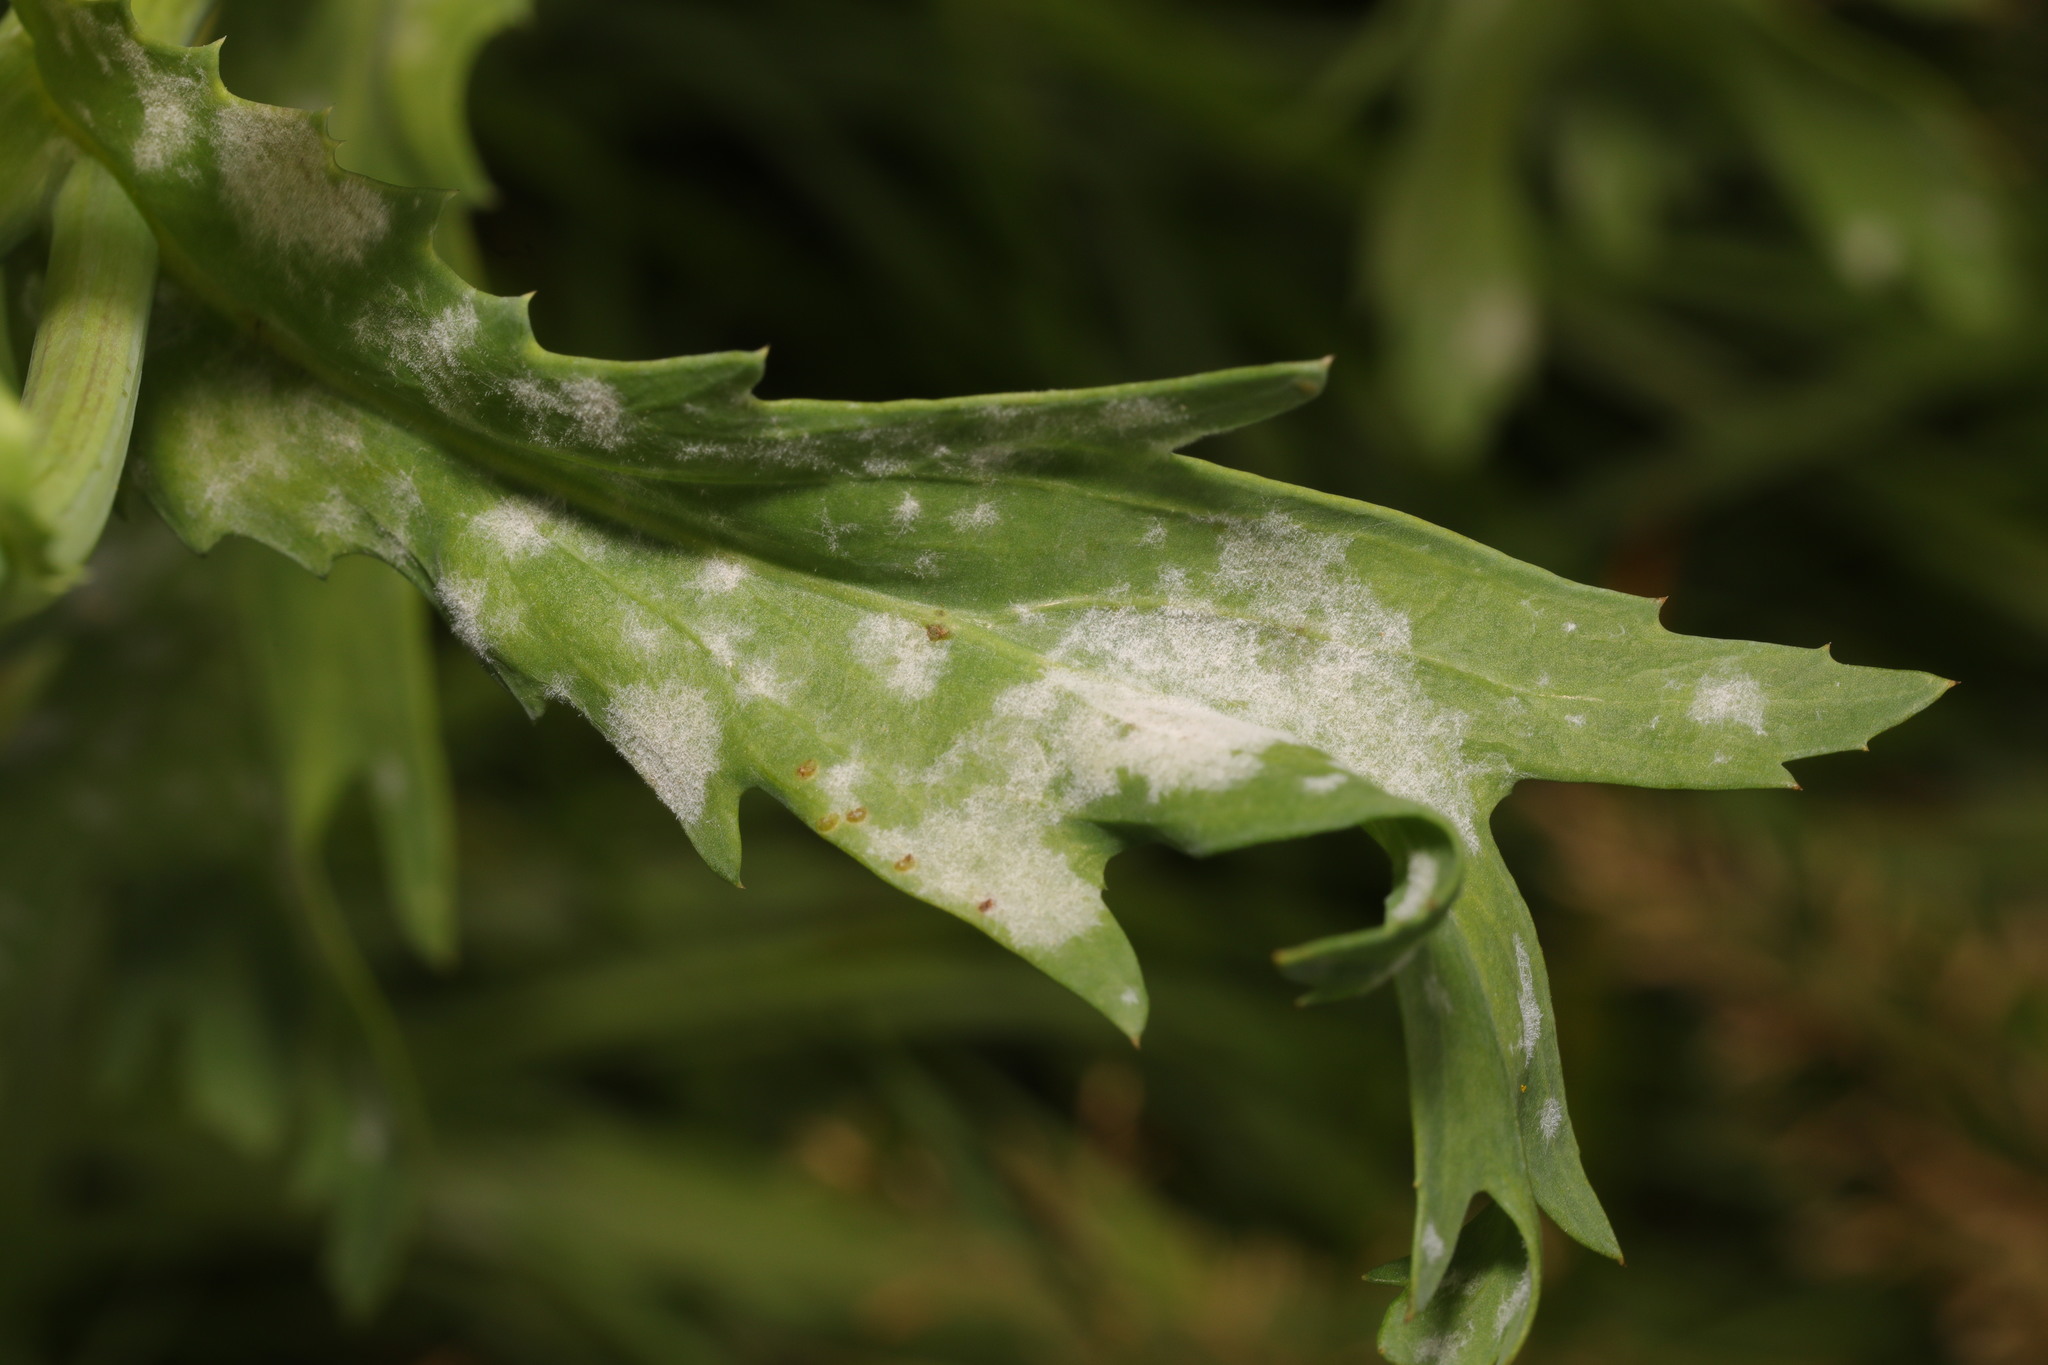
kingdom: Fungi
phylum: Ascomycota
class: Leotiomycetes
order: Helotiales
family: Erysiphaceae
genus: Golovinomyces
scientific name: Golovinomyces macrocarpus
